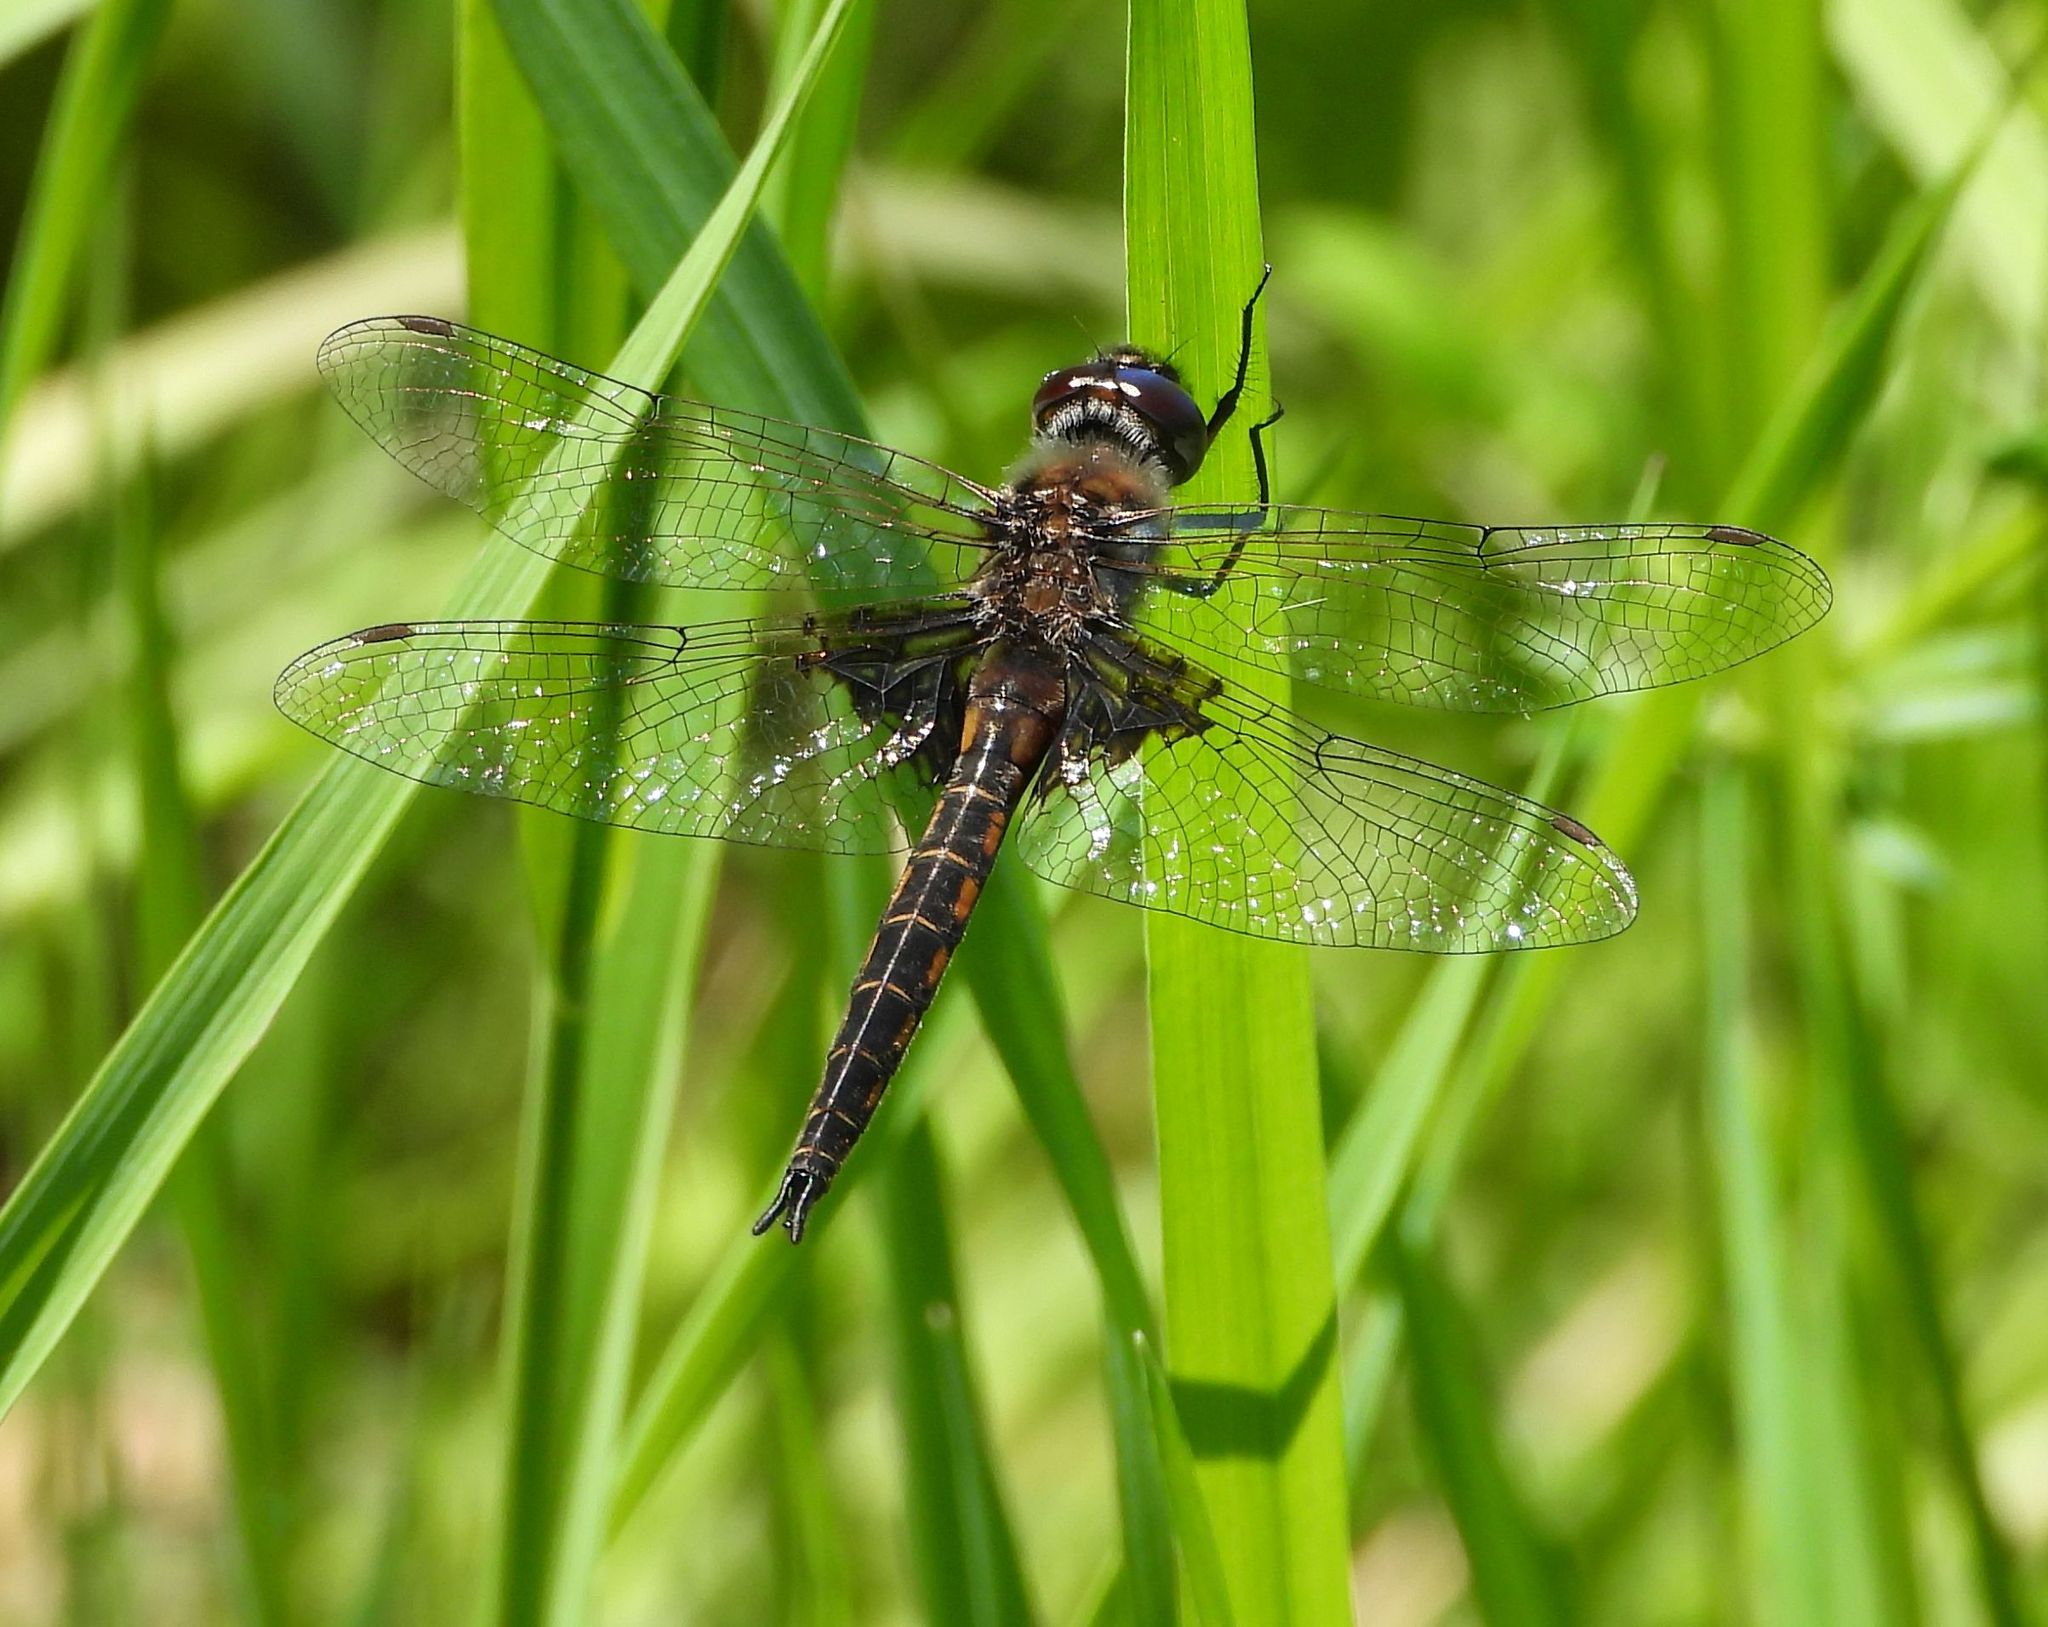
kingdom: Animalia
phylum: Arthropoda
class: Insecta
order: Odonata
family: Corduliidae
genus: Epitheca
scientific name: Epitheca cynosura
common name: Common baskettail
